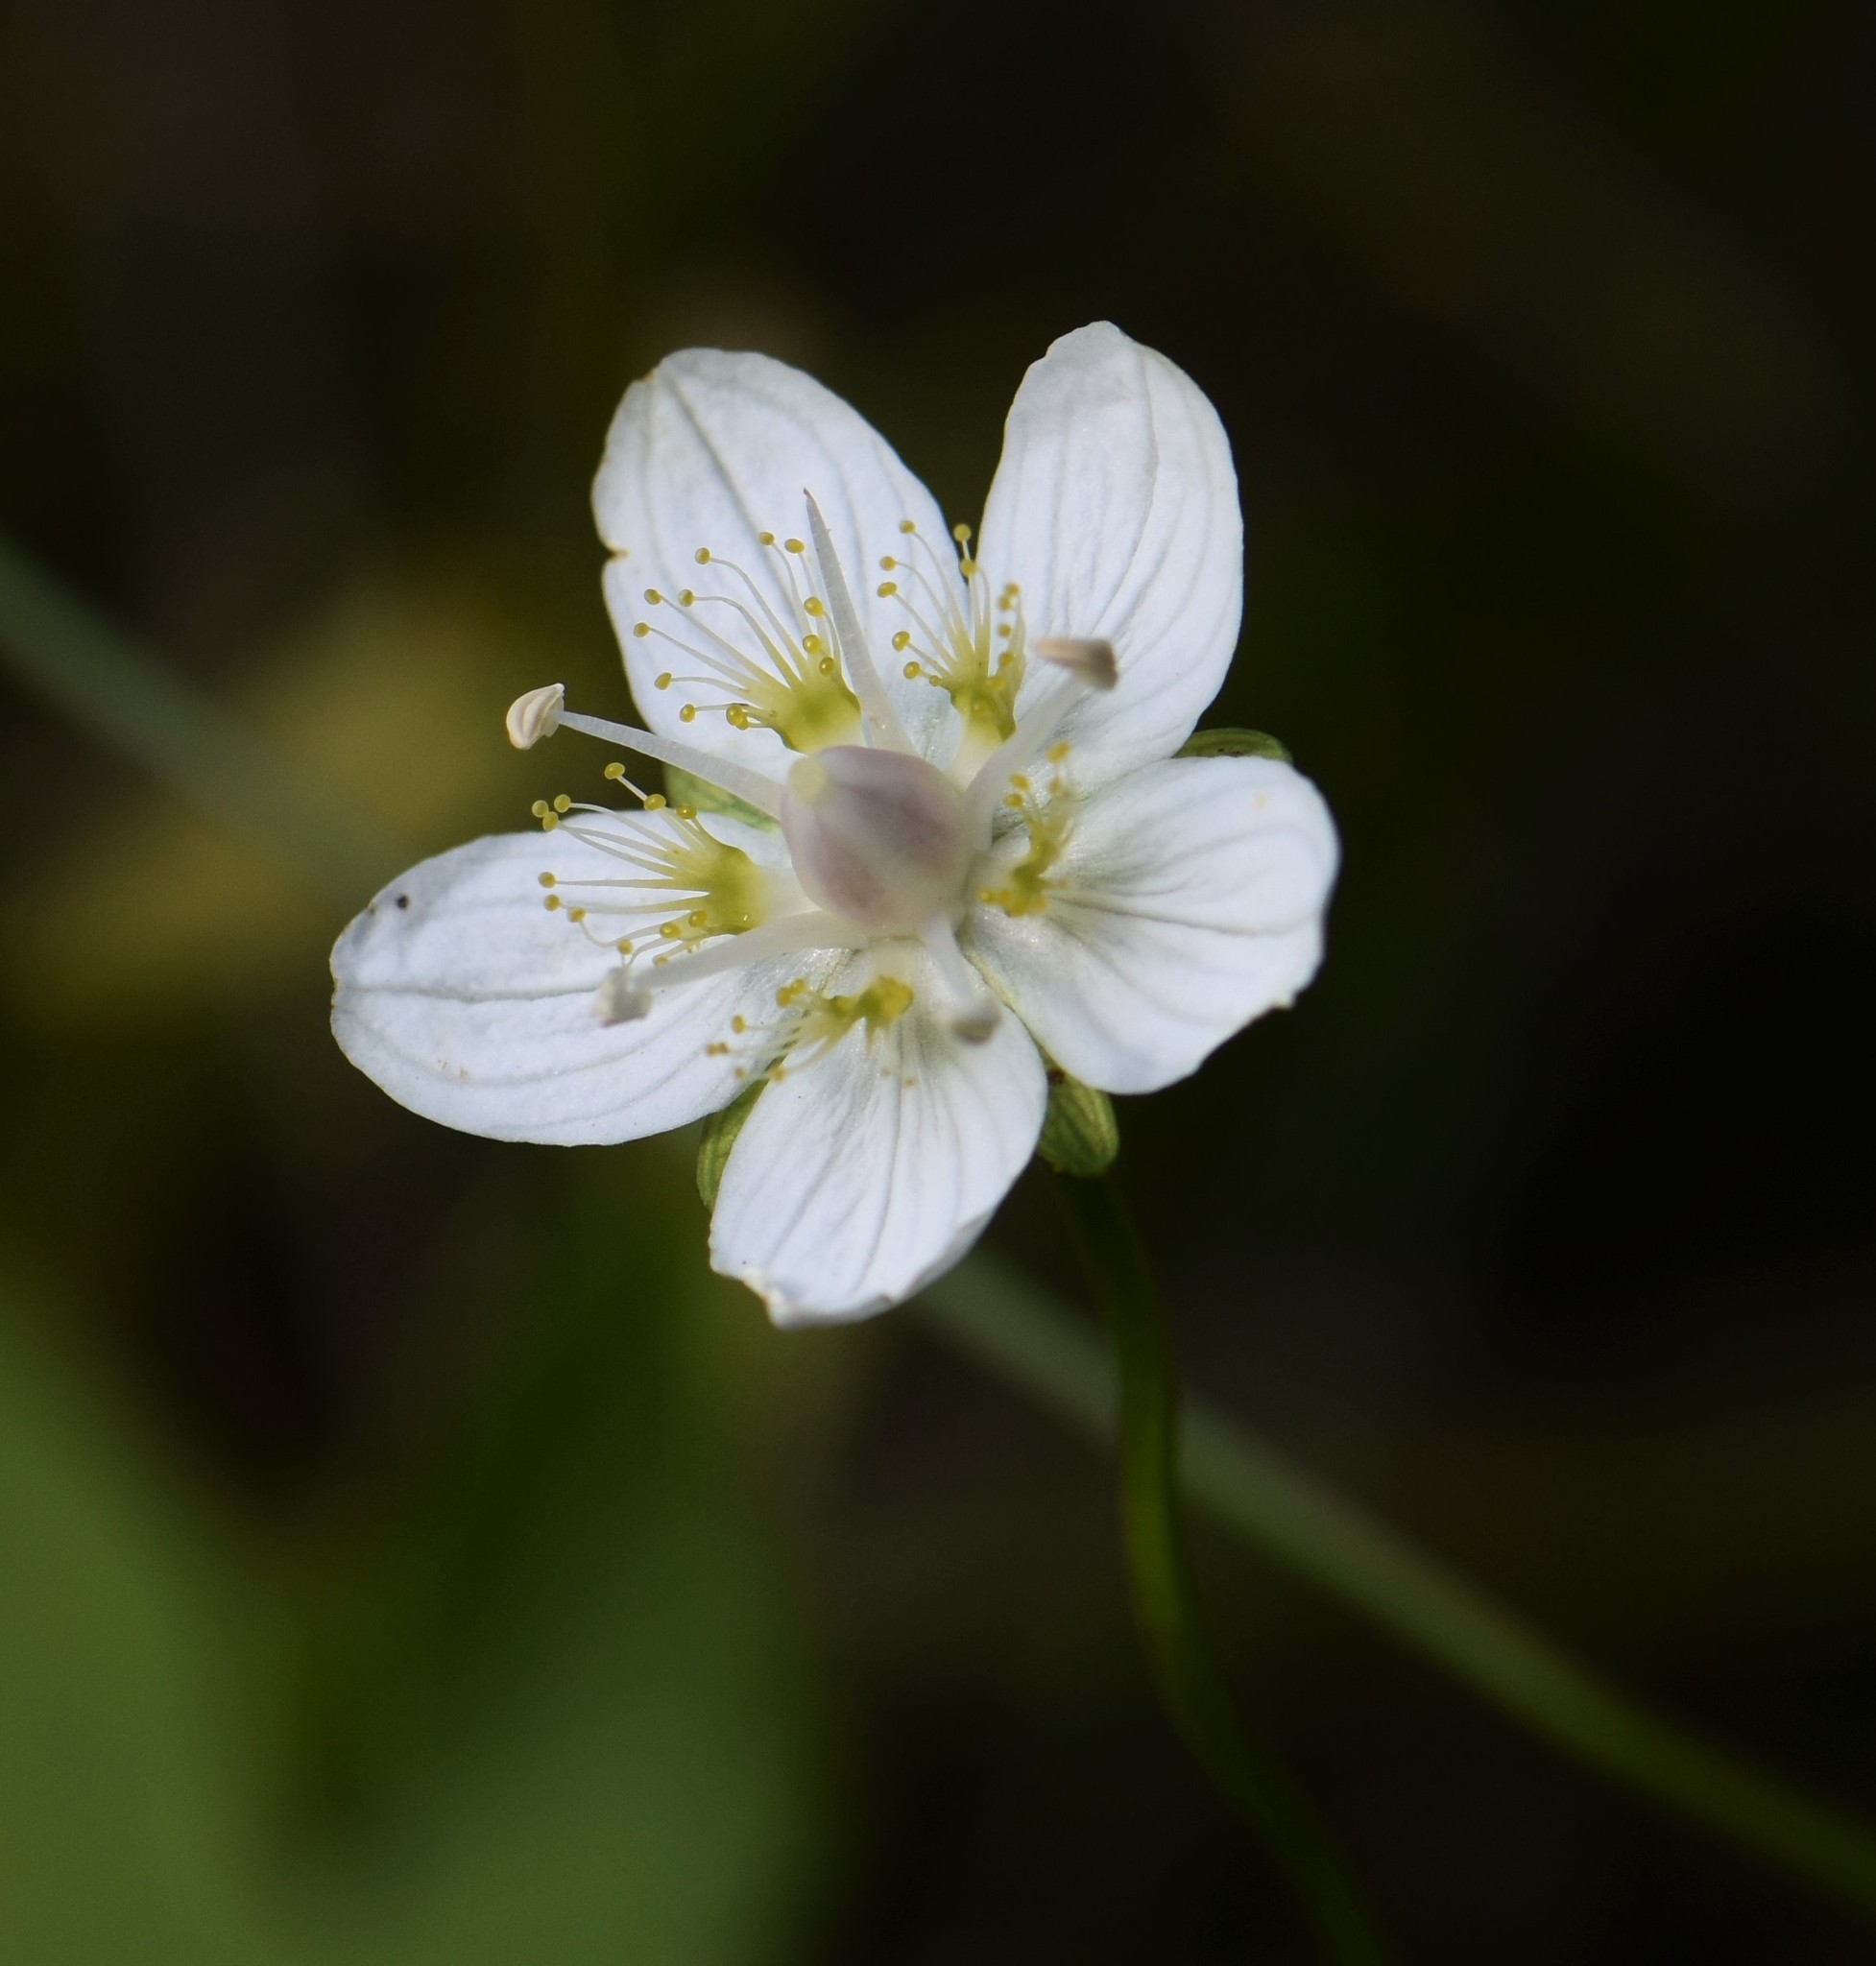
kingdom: Plantae
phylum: Tracheophyta
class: Magnoliopsida
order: Celastrales
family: Parnassiaceae
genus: Parnassia
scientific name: Parnassia palustris
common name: Grass-of-parnassus
